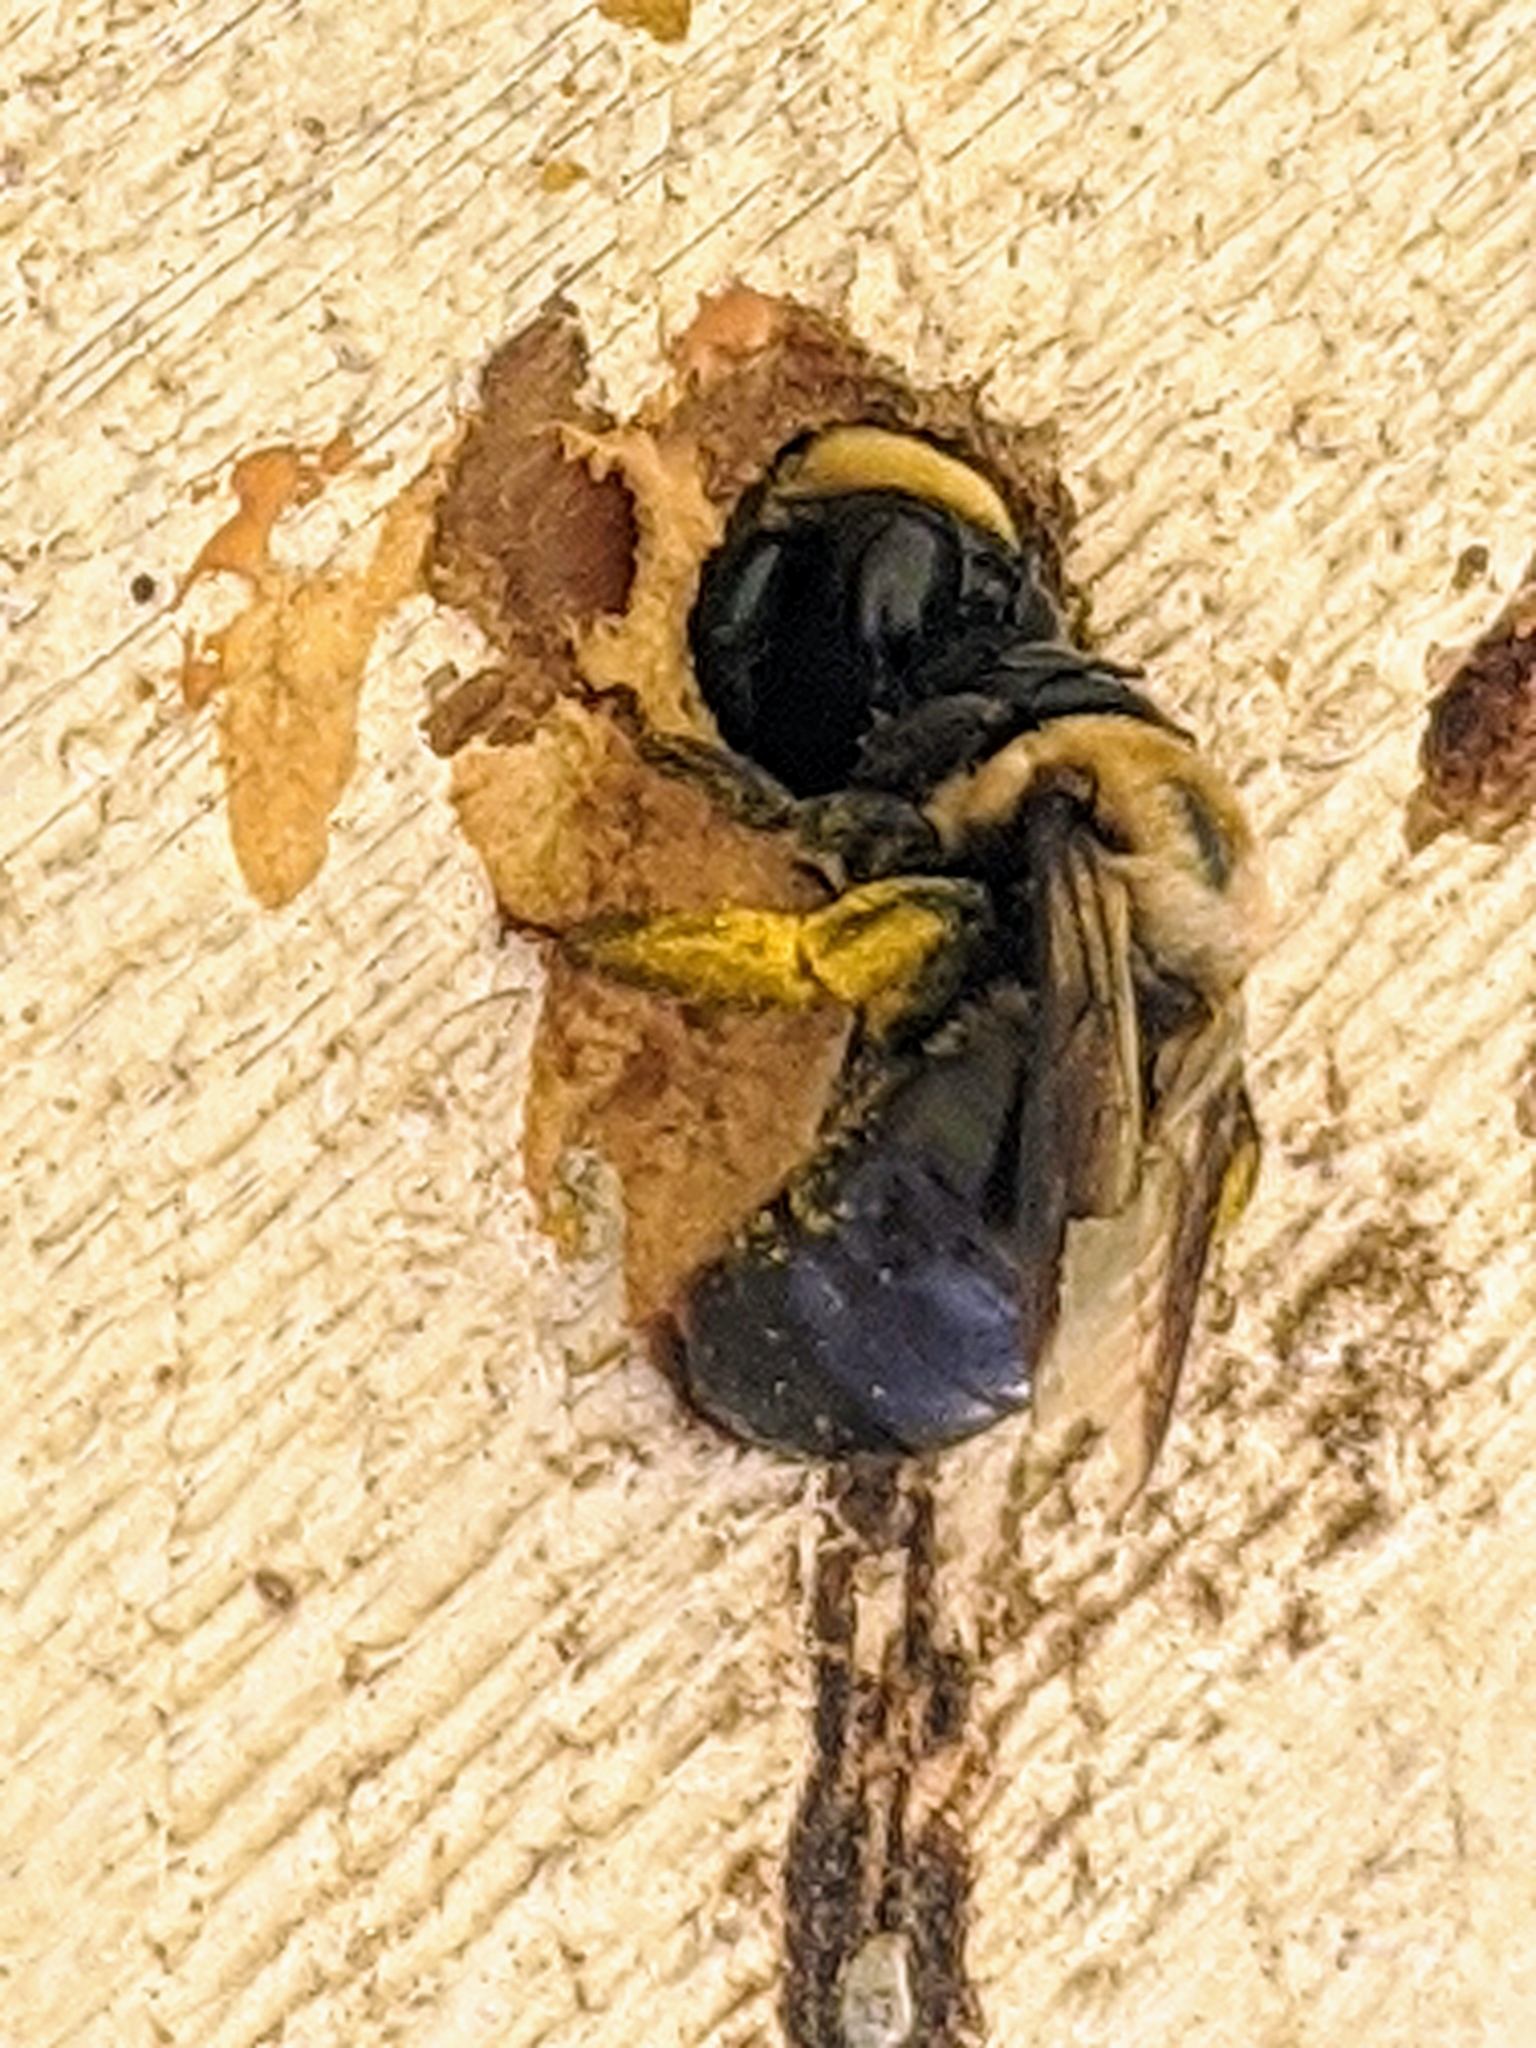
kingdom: Animalia
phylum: Arthropoda
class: Insecta
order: Hymenoptera
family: Apidae
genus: Xylocopa
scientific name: Xylocopa virginica
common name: Carpenter bee
